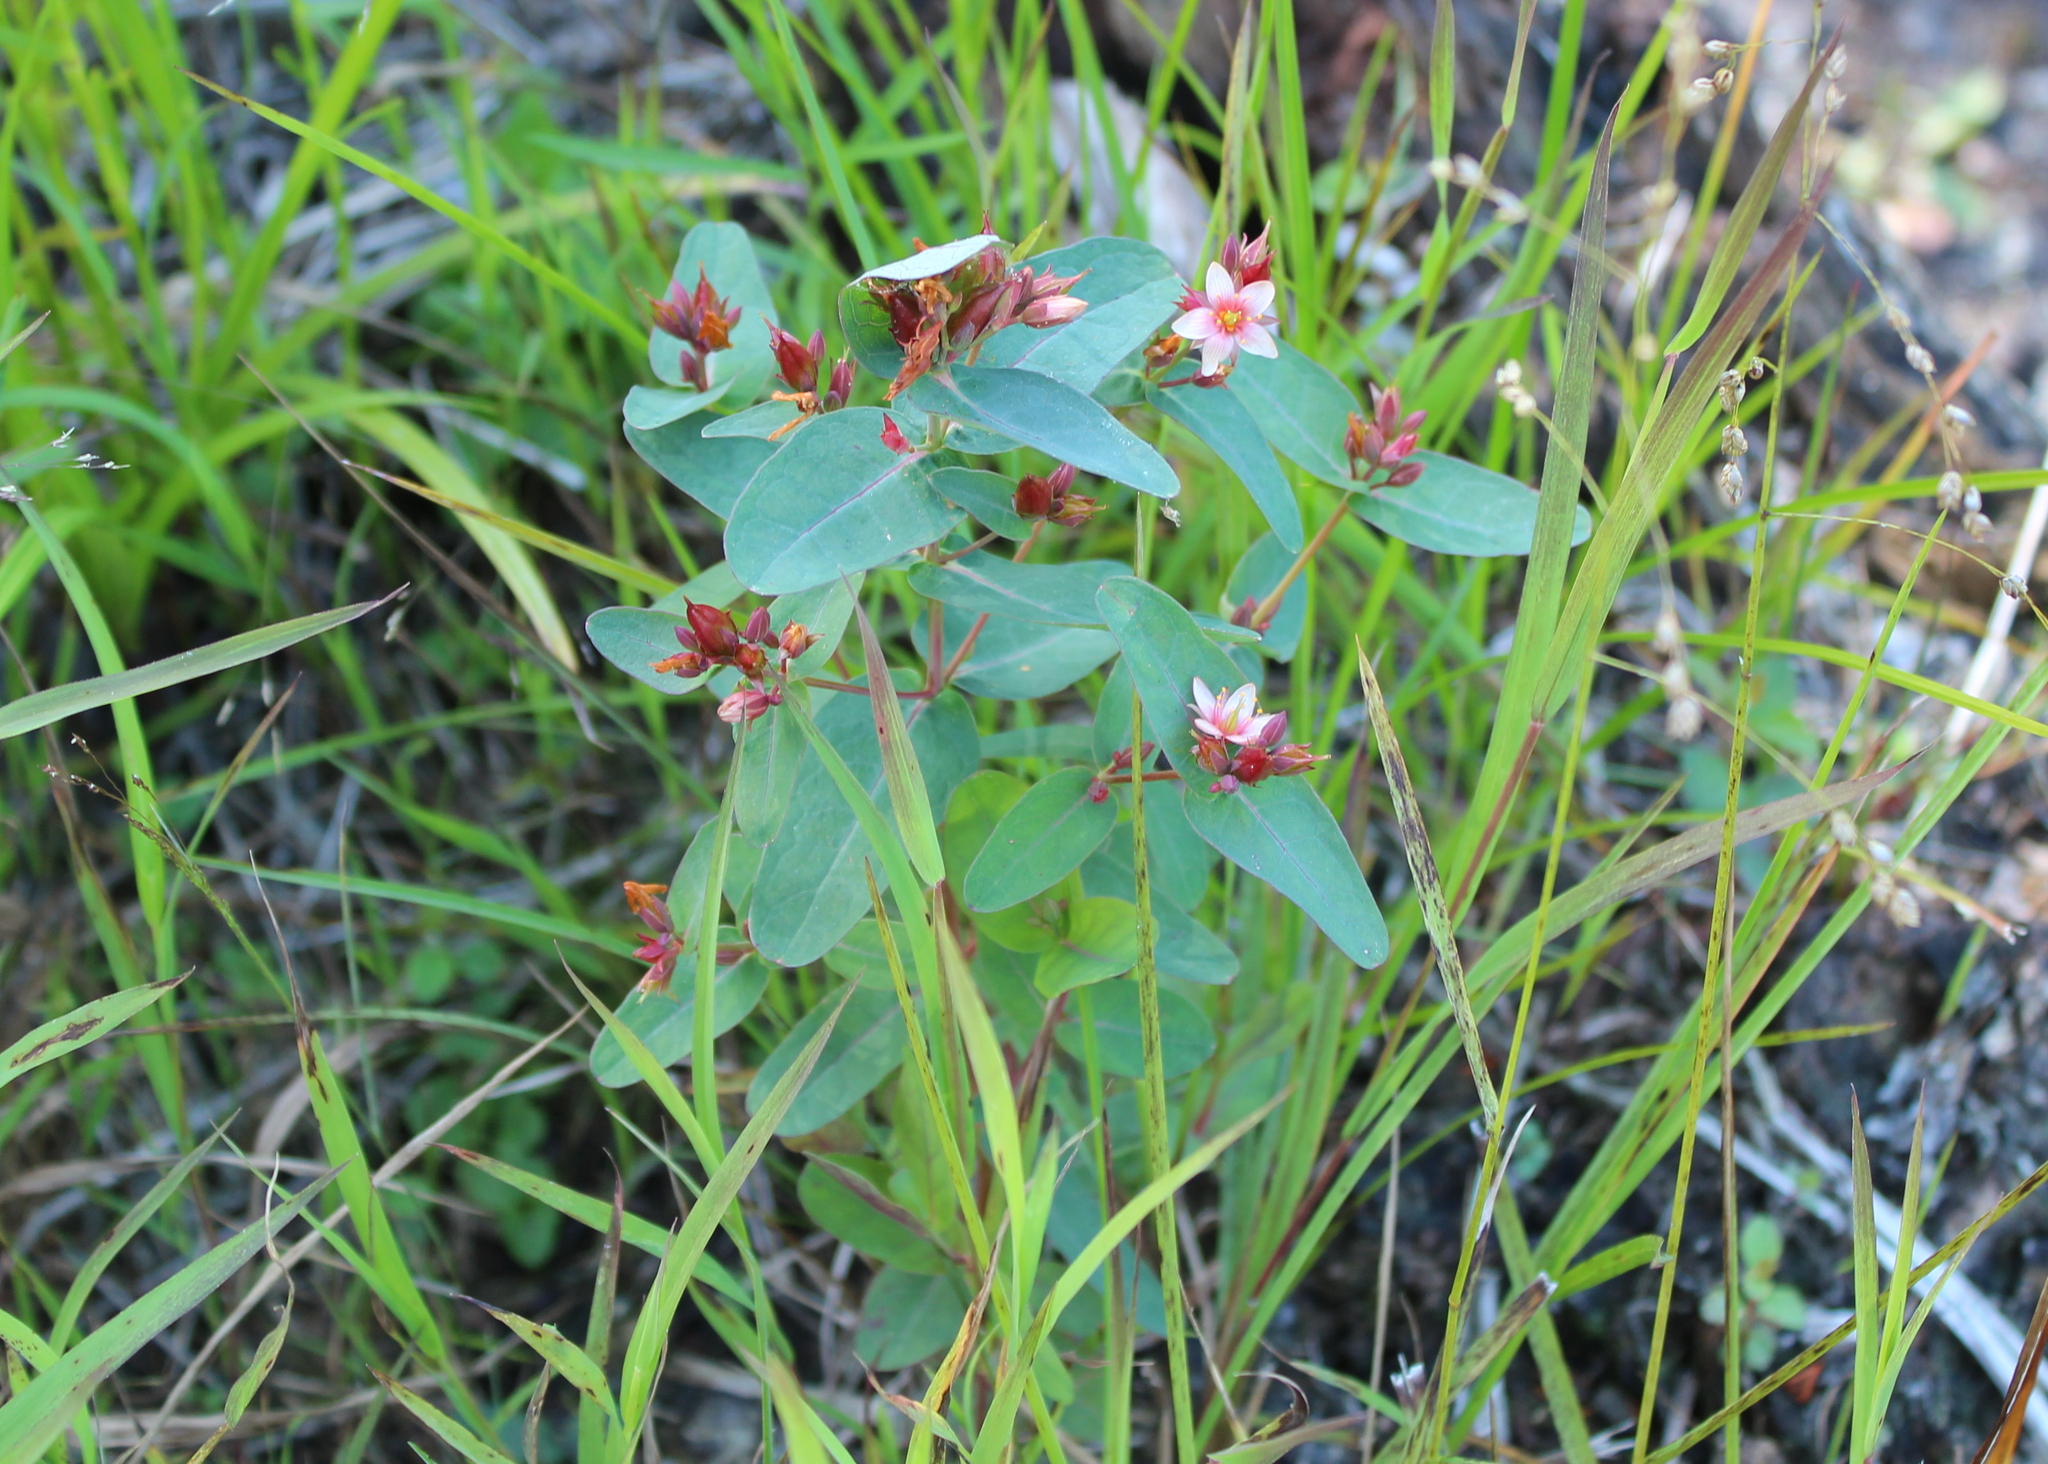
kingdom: Plantae
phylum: Tracheophyta
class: Magnoliopsida
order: Malpighiales
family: Hypericaceae
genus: Triadenum
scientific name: Triadenum virginicum
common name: Marsh st. john's-wort
